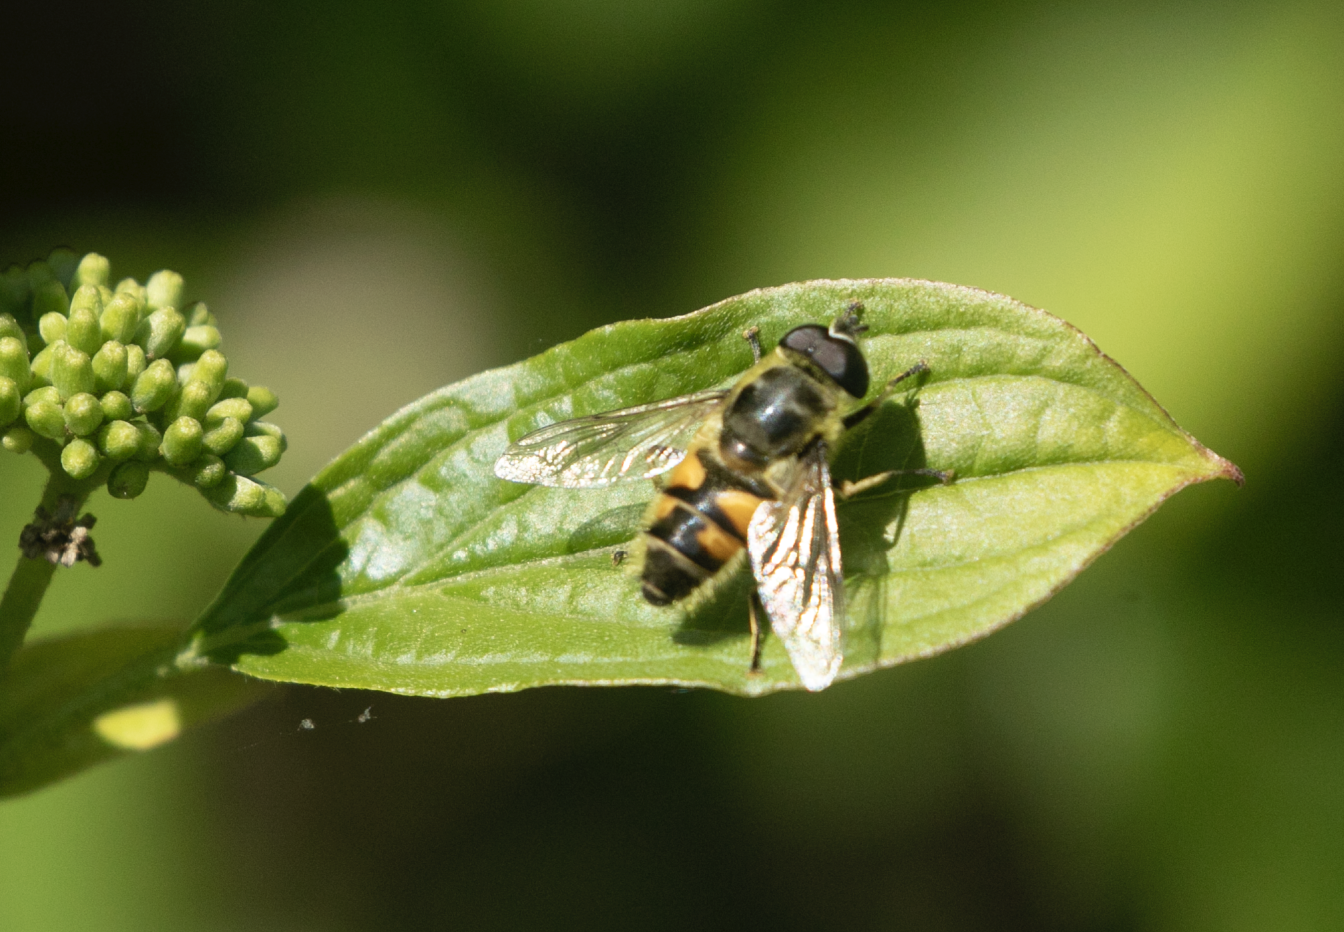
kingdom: Animalia
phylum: Arthropoda
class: Insecta
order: Diptera
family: Syrphidae
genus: Myathropa
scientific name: Myathropa florea
